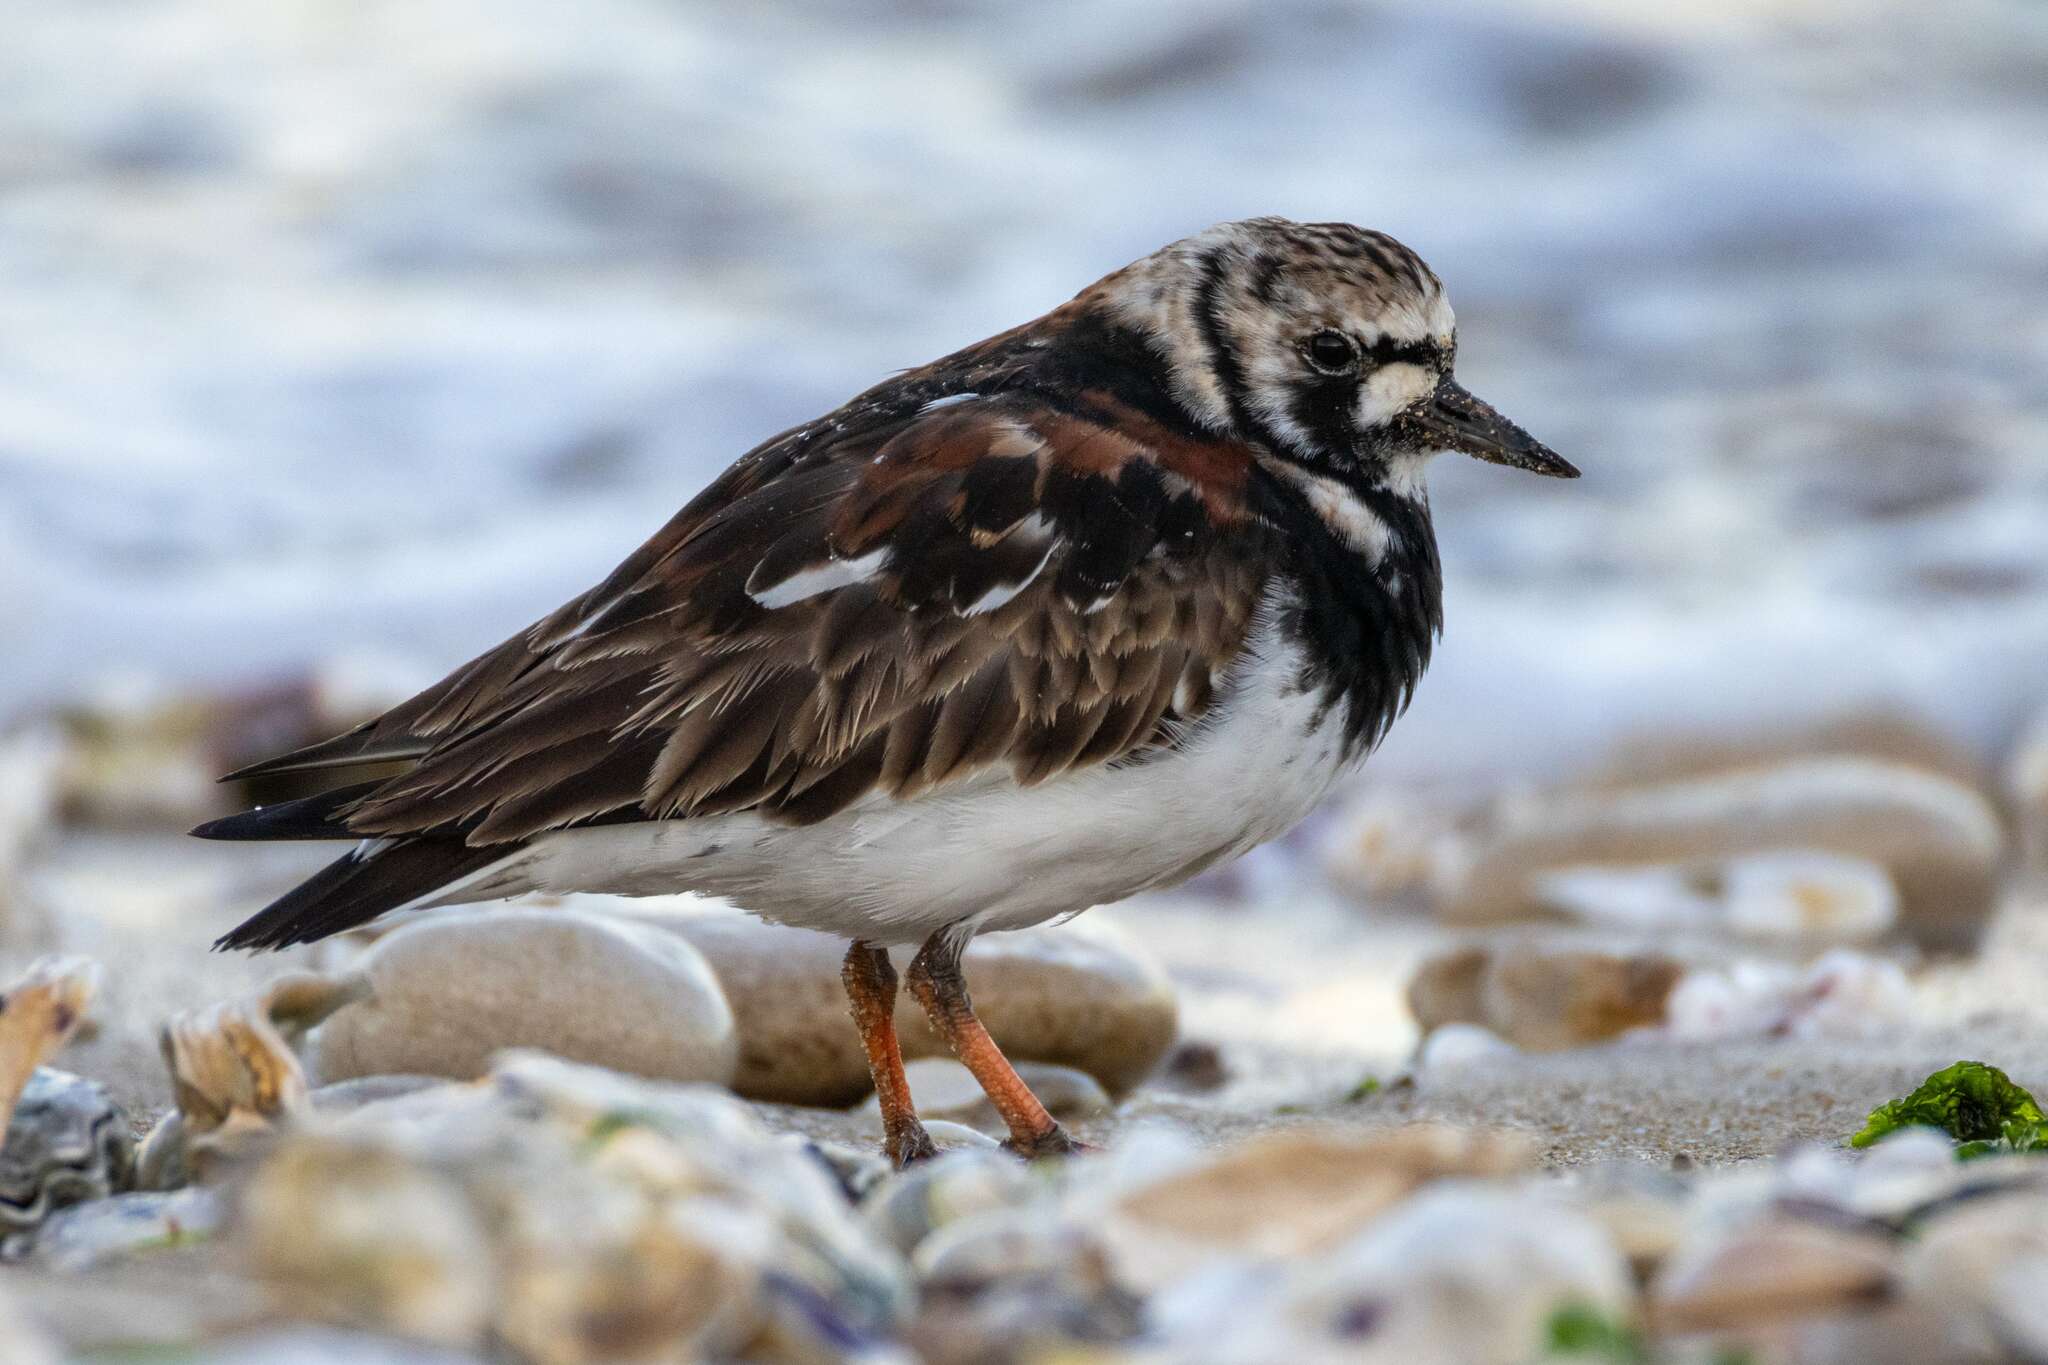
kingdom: Animalia
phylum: Chordata
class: Aves
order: Charadriiformes
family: Scolopacidae
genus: Arenaria
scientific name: Arenaria interpres
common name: Ruddy turnstone
